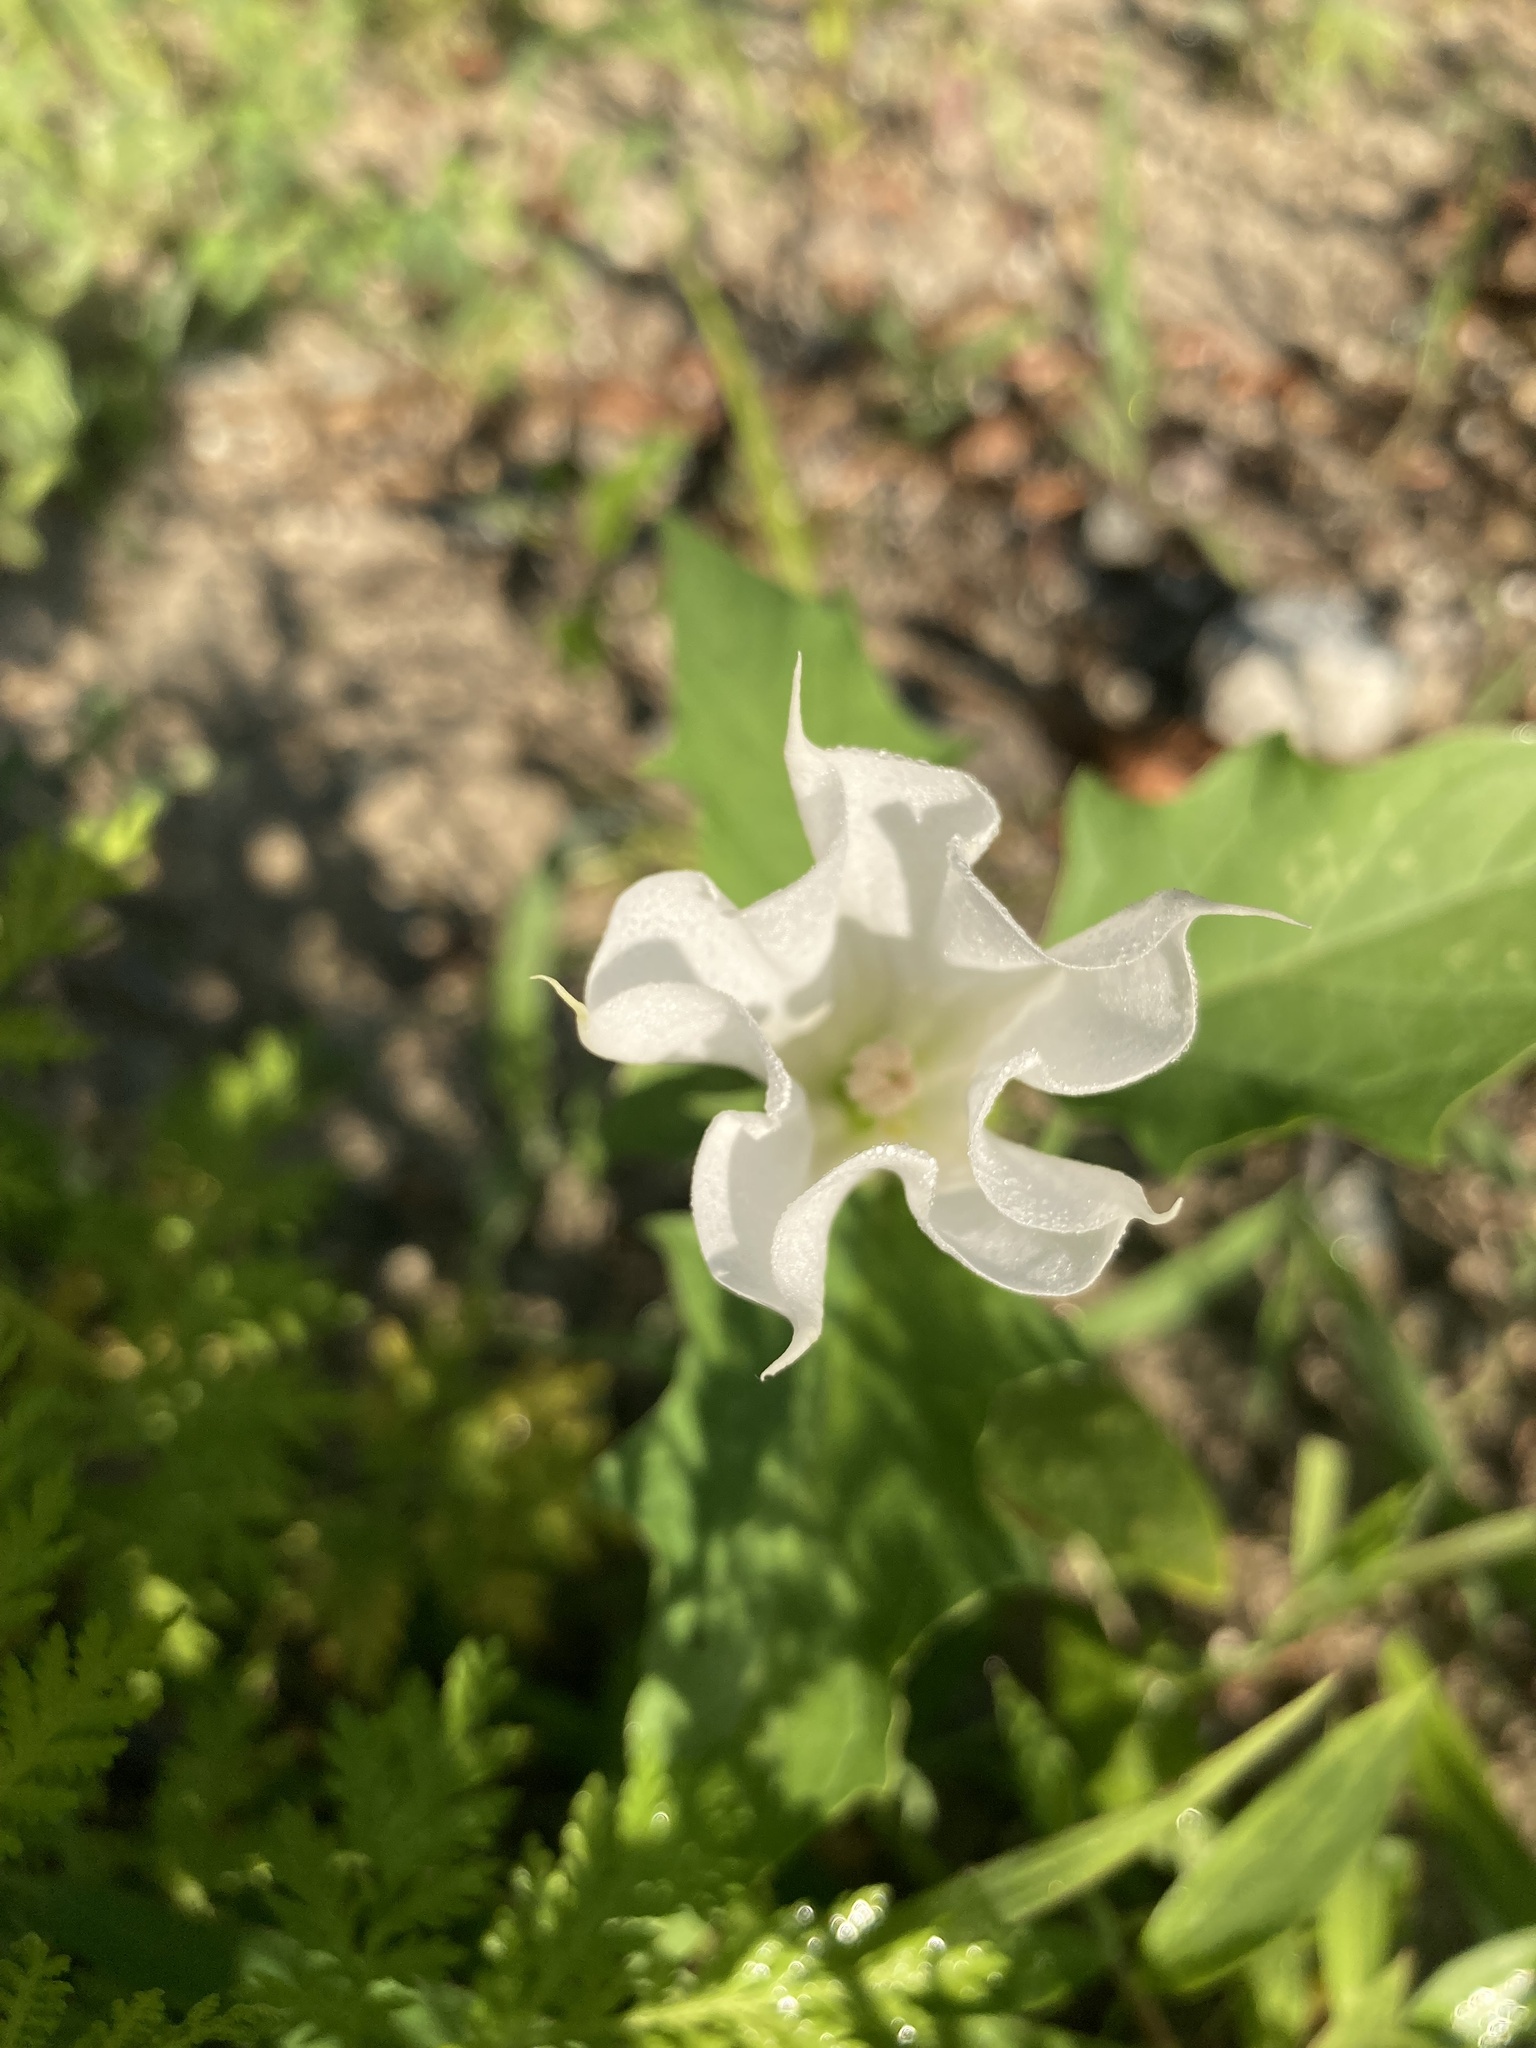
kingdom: Plantae
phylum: Tracheophyta
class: Magnoliopsida
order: Solanales
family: Solanaceae
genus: Datura
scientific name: Datura stramonium
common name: Thorn-apple
